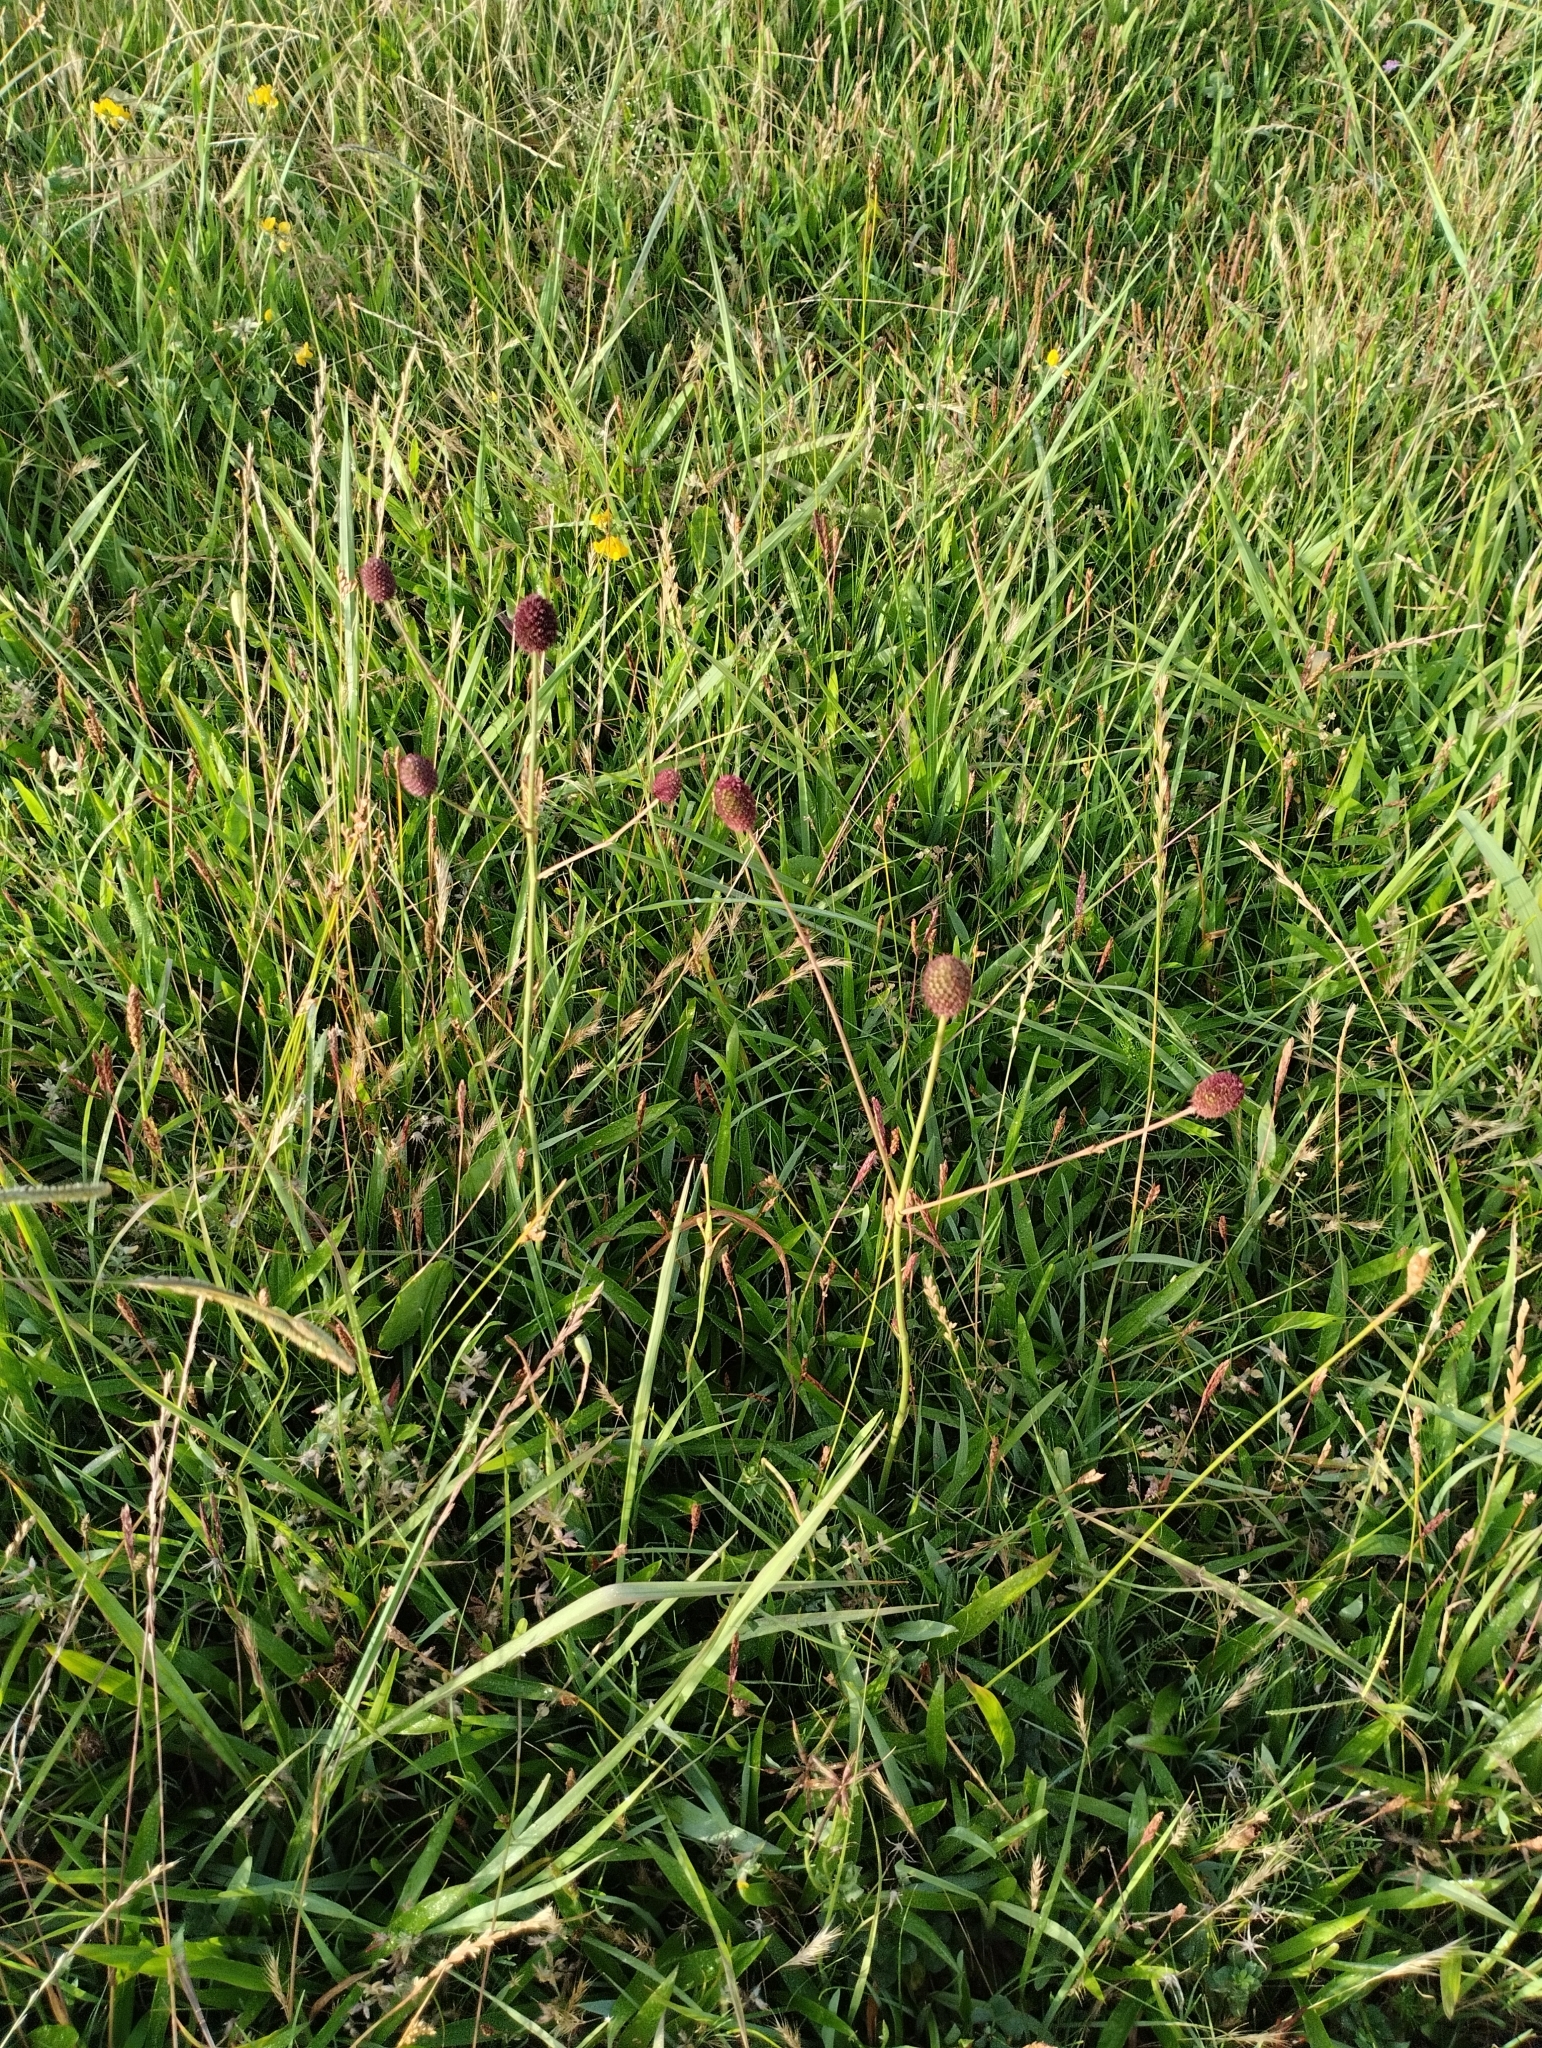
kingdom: Plantae
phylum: Tracheophyta
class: Magnoliopsida
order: Apiales
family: Apiaceae
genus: Eryngium
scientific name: Eryngium sanguisorba
